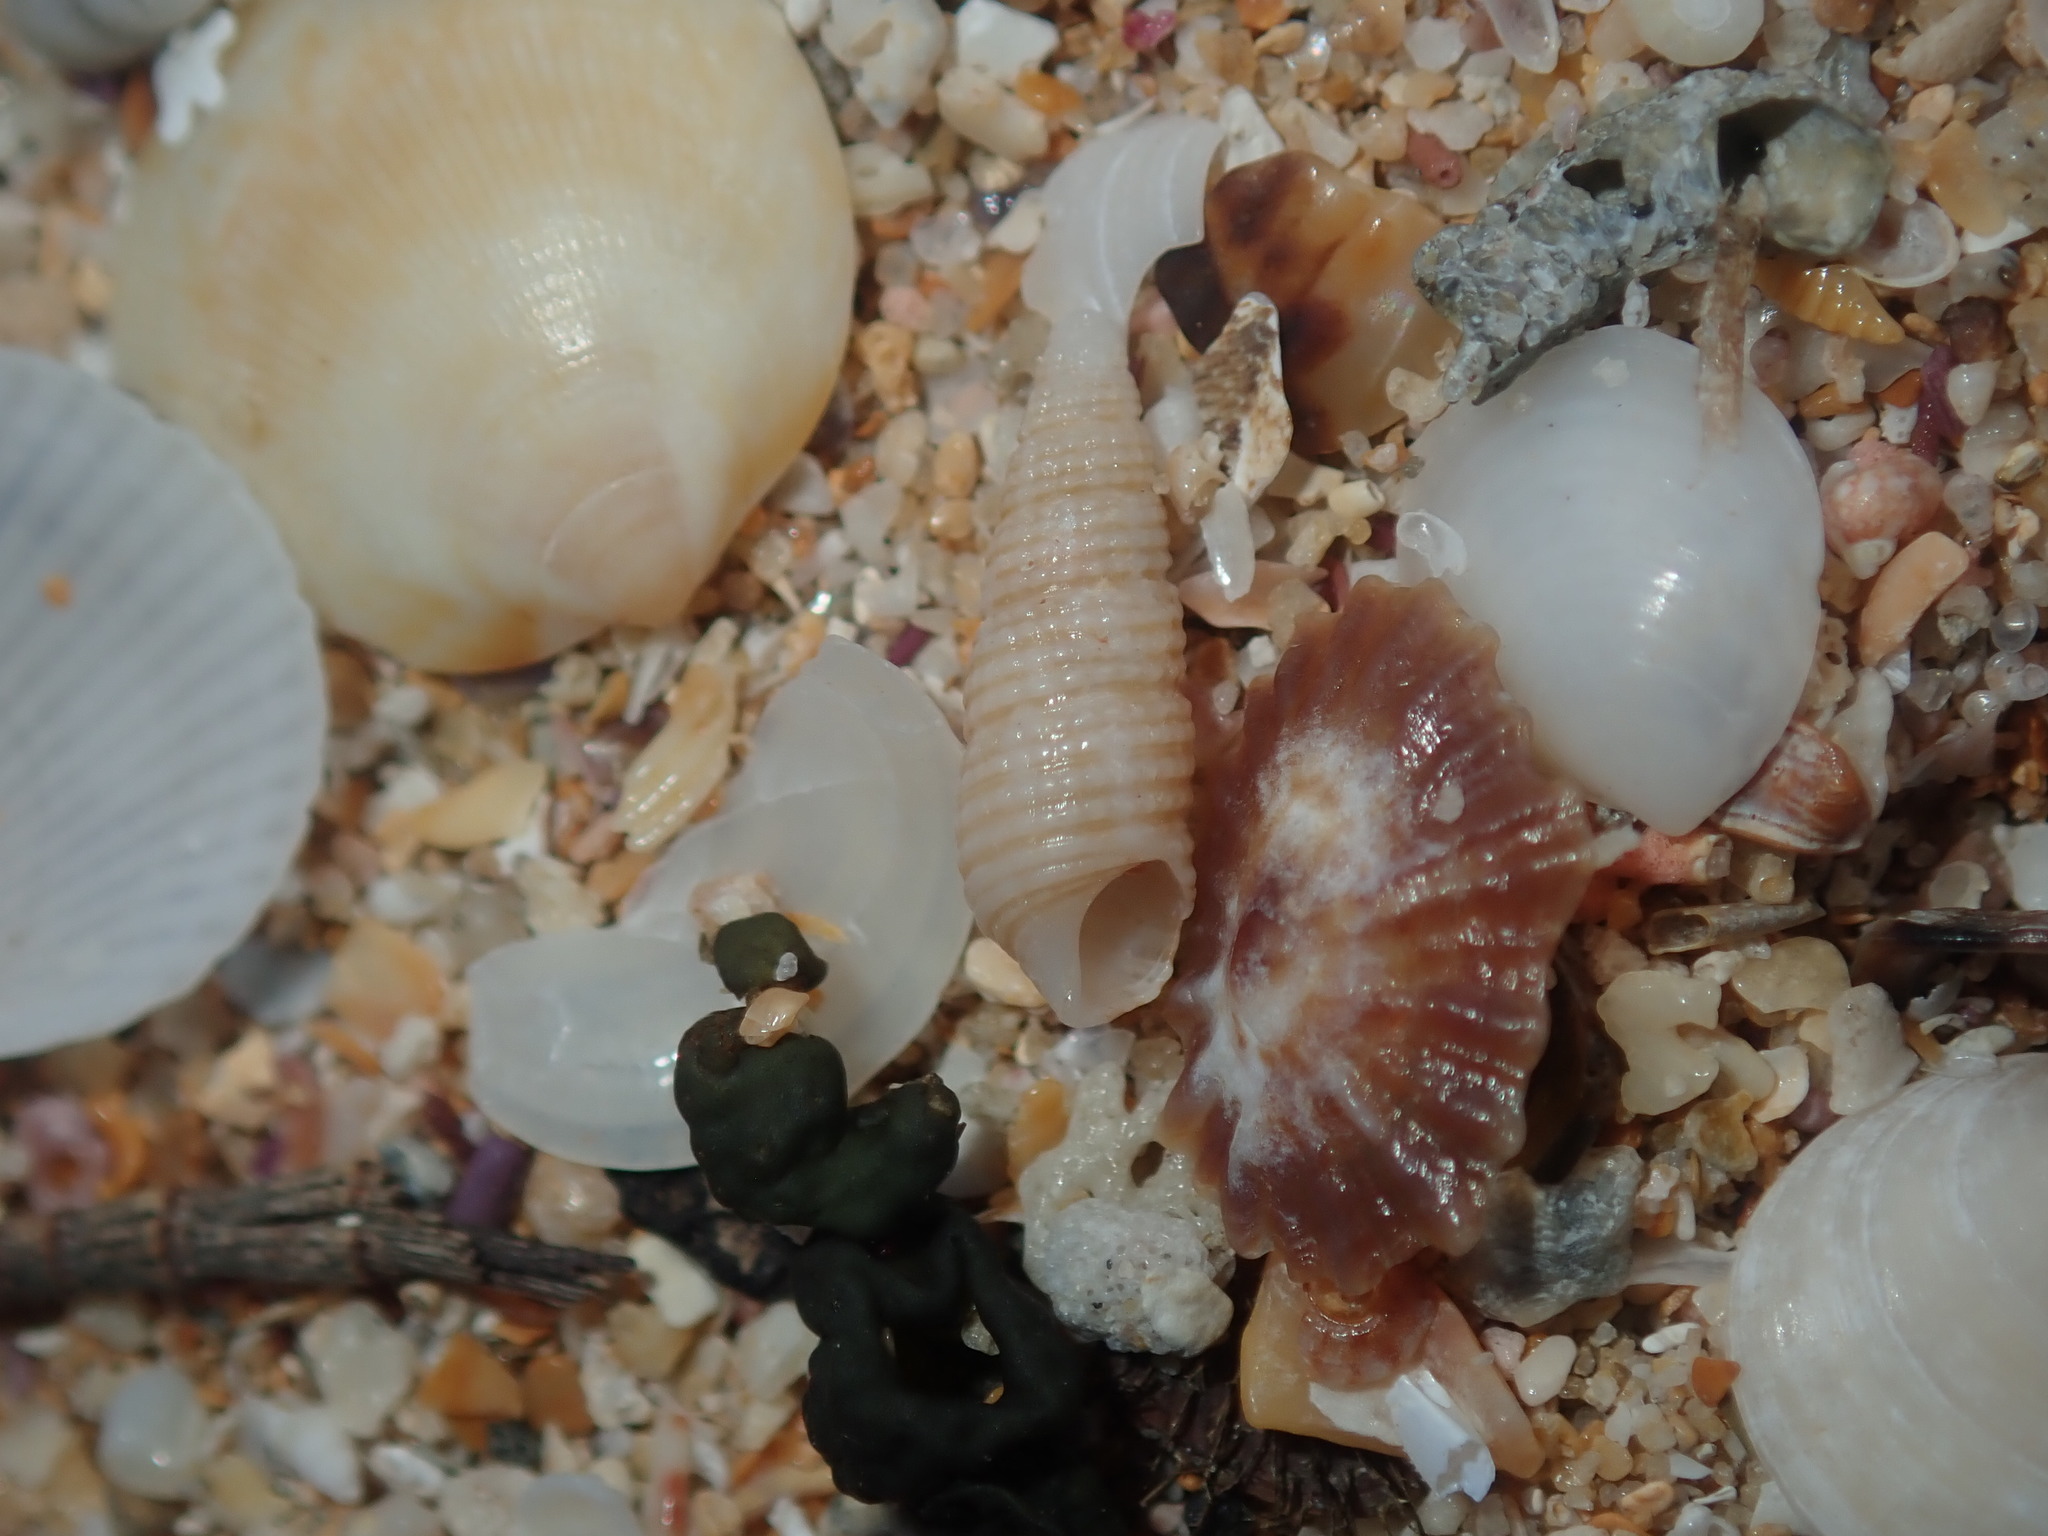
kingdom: Animalia
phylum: Mollusca
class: Gastropoda
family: Cerithiidae
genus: Cacozeliana
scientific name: Cacozeliana granarium
